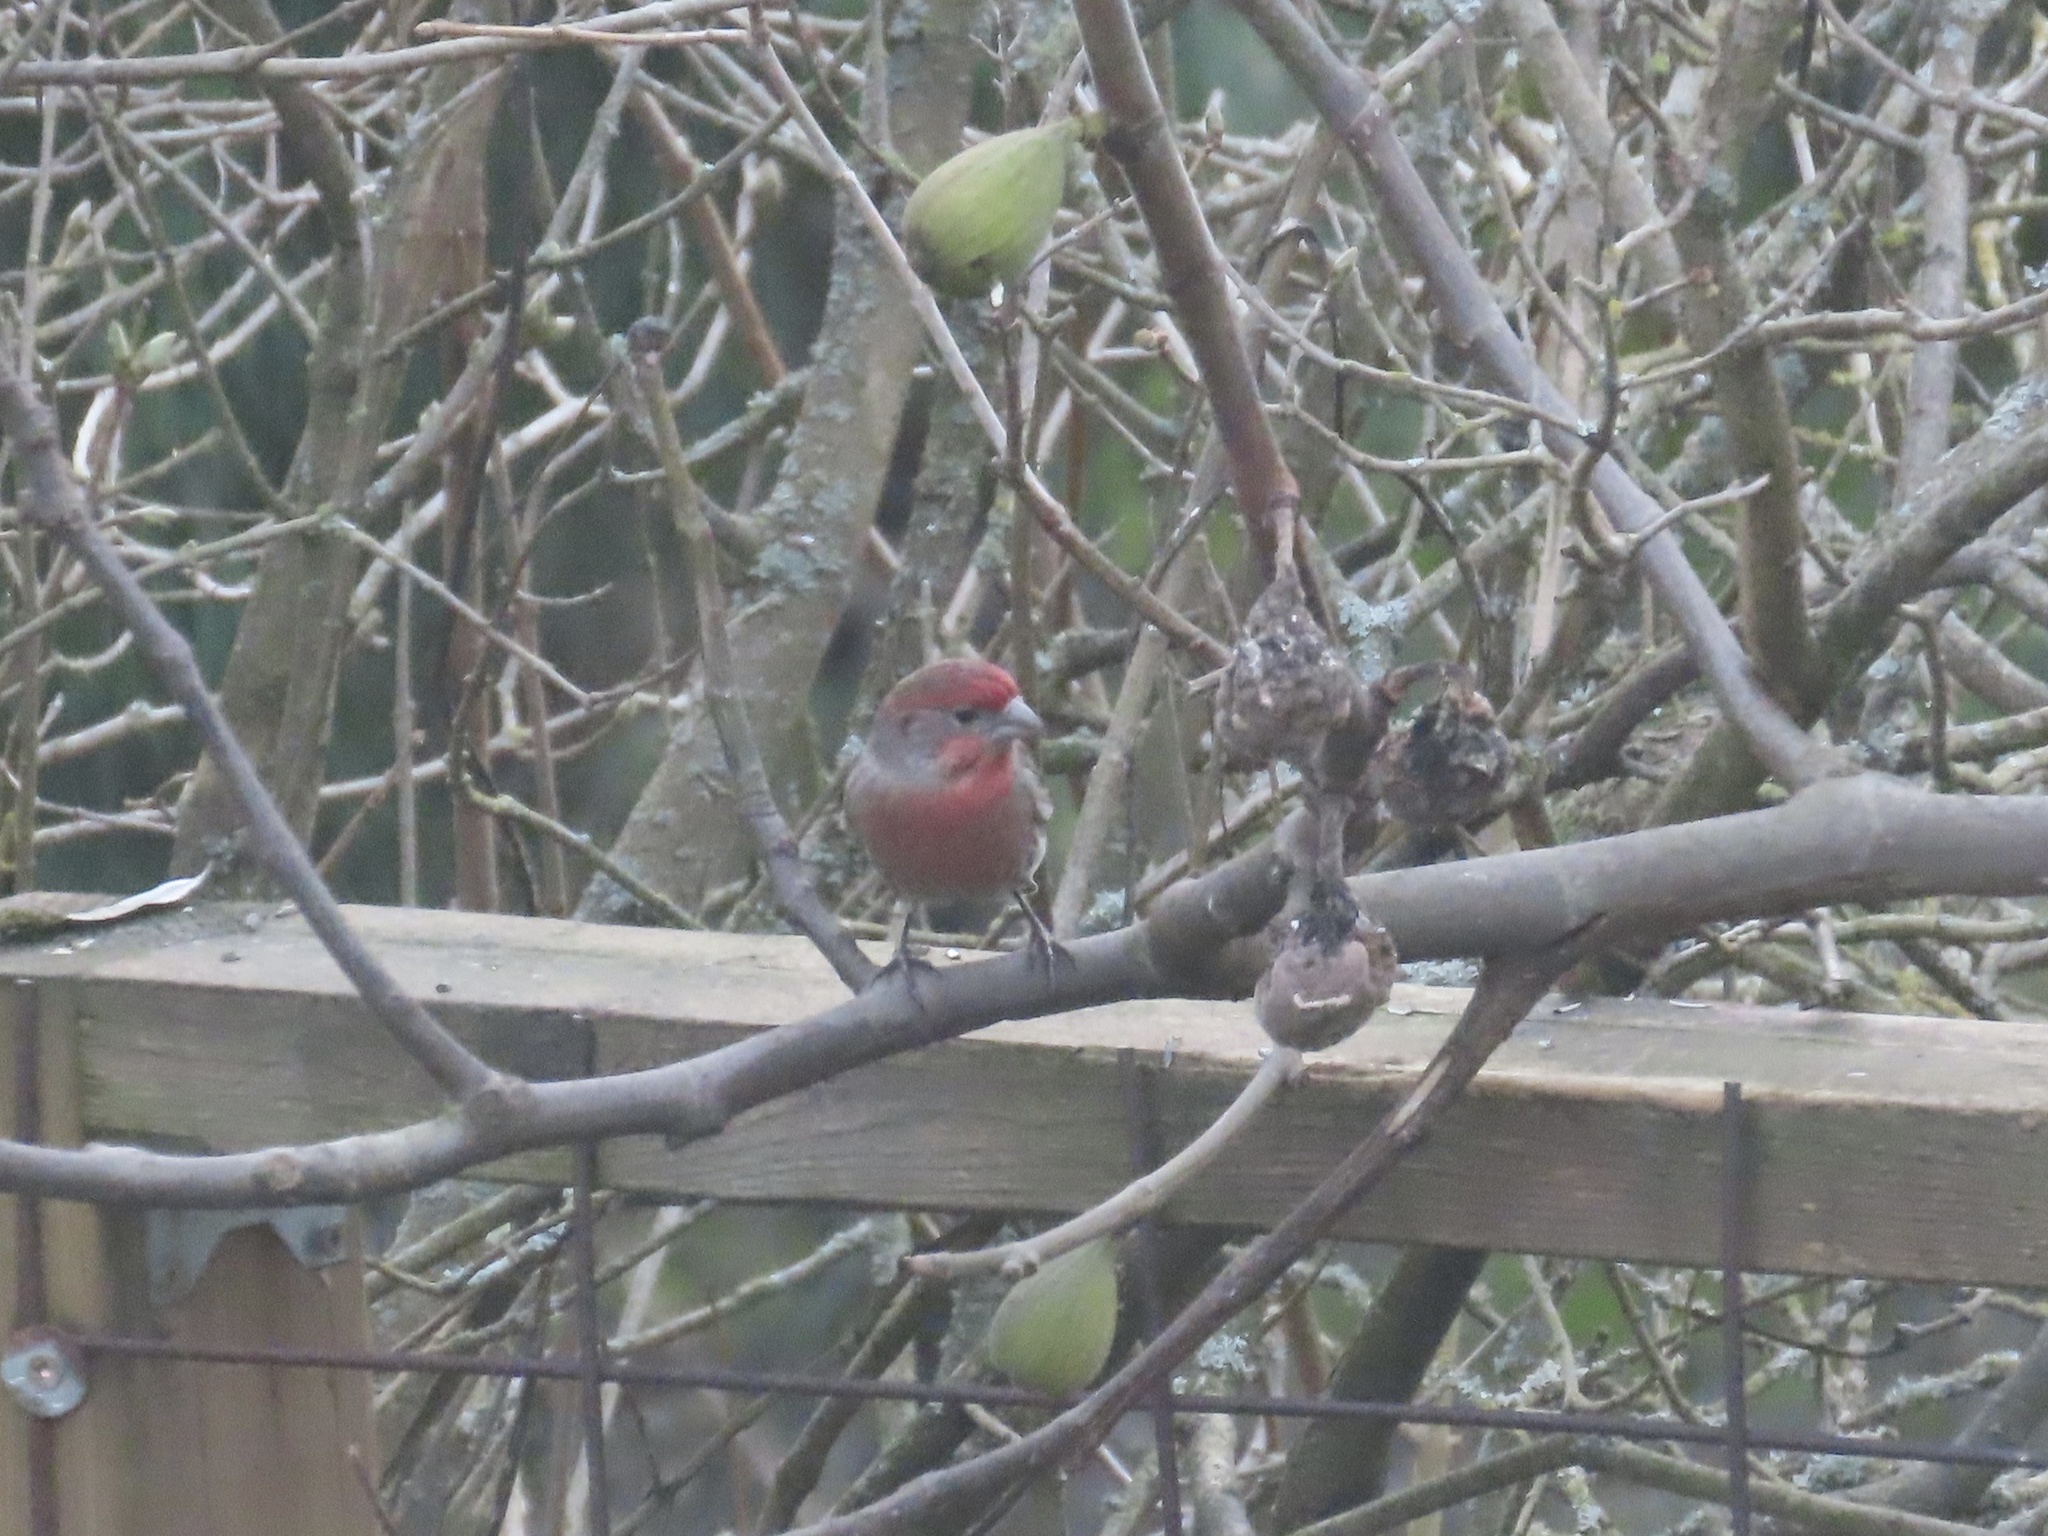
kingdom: Animalia
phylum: Chordata
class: Aves
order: Passeriformes
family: Fringillidae
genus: Haemorhous
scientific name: Haemorhous mexicanus
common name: House finch
